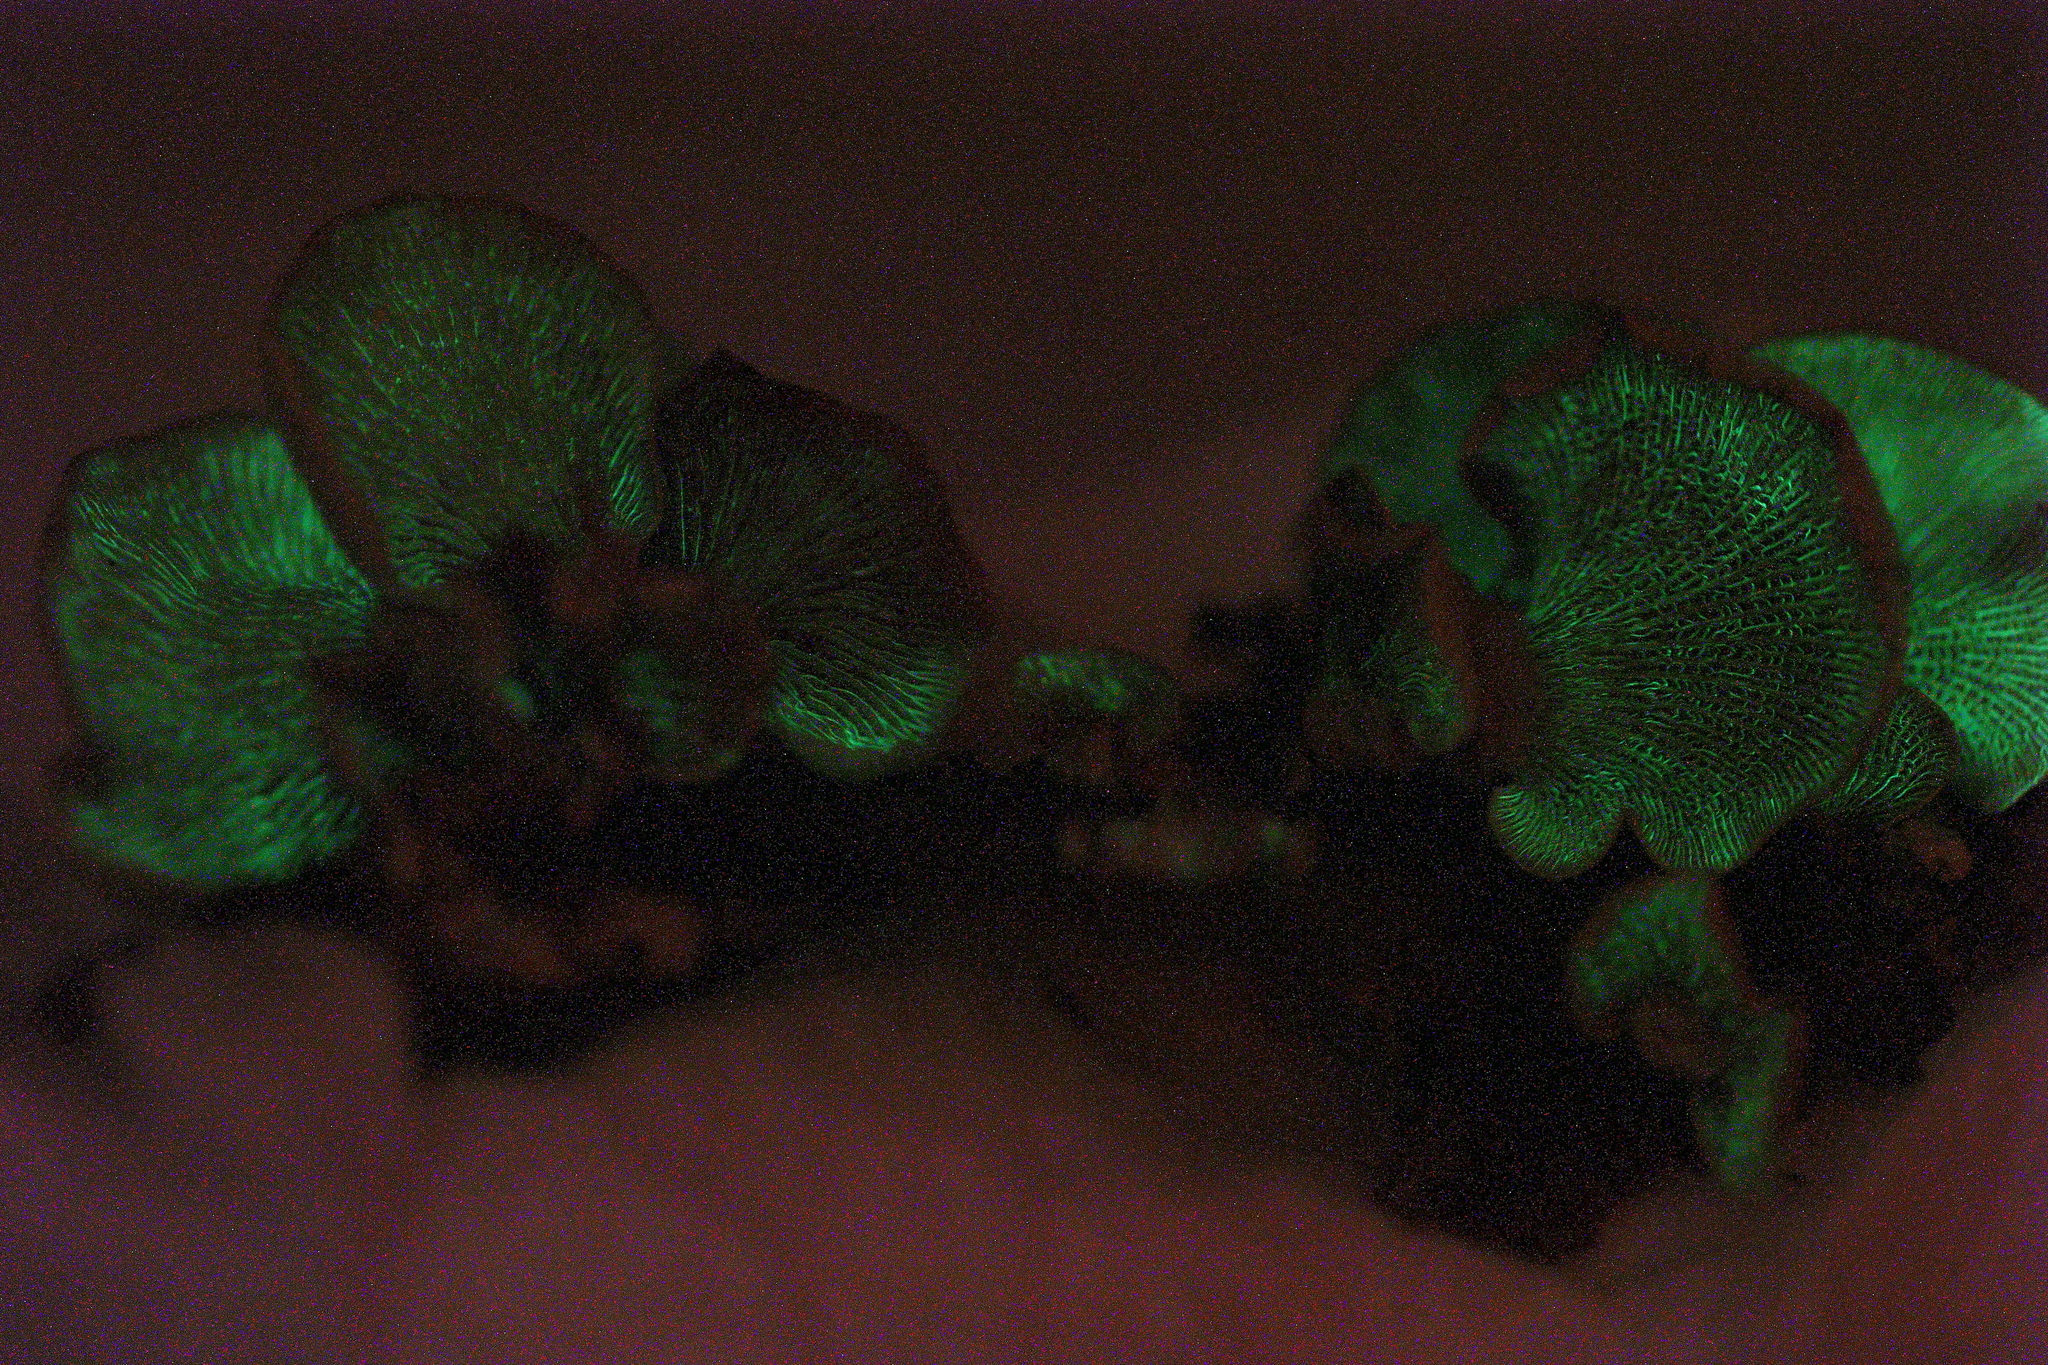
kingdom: Fungi
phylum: Basidiomycota
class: Agaricomycetes
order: Agaricales
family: Mycenaceae
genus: Panellus
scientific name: Panellus stipticus
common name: Bitter oysterling
